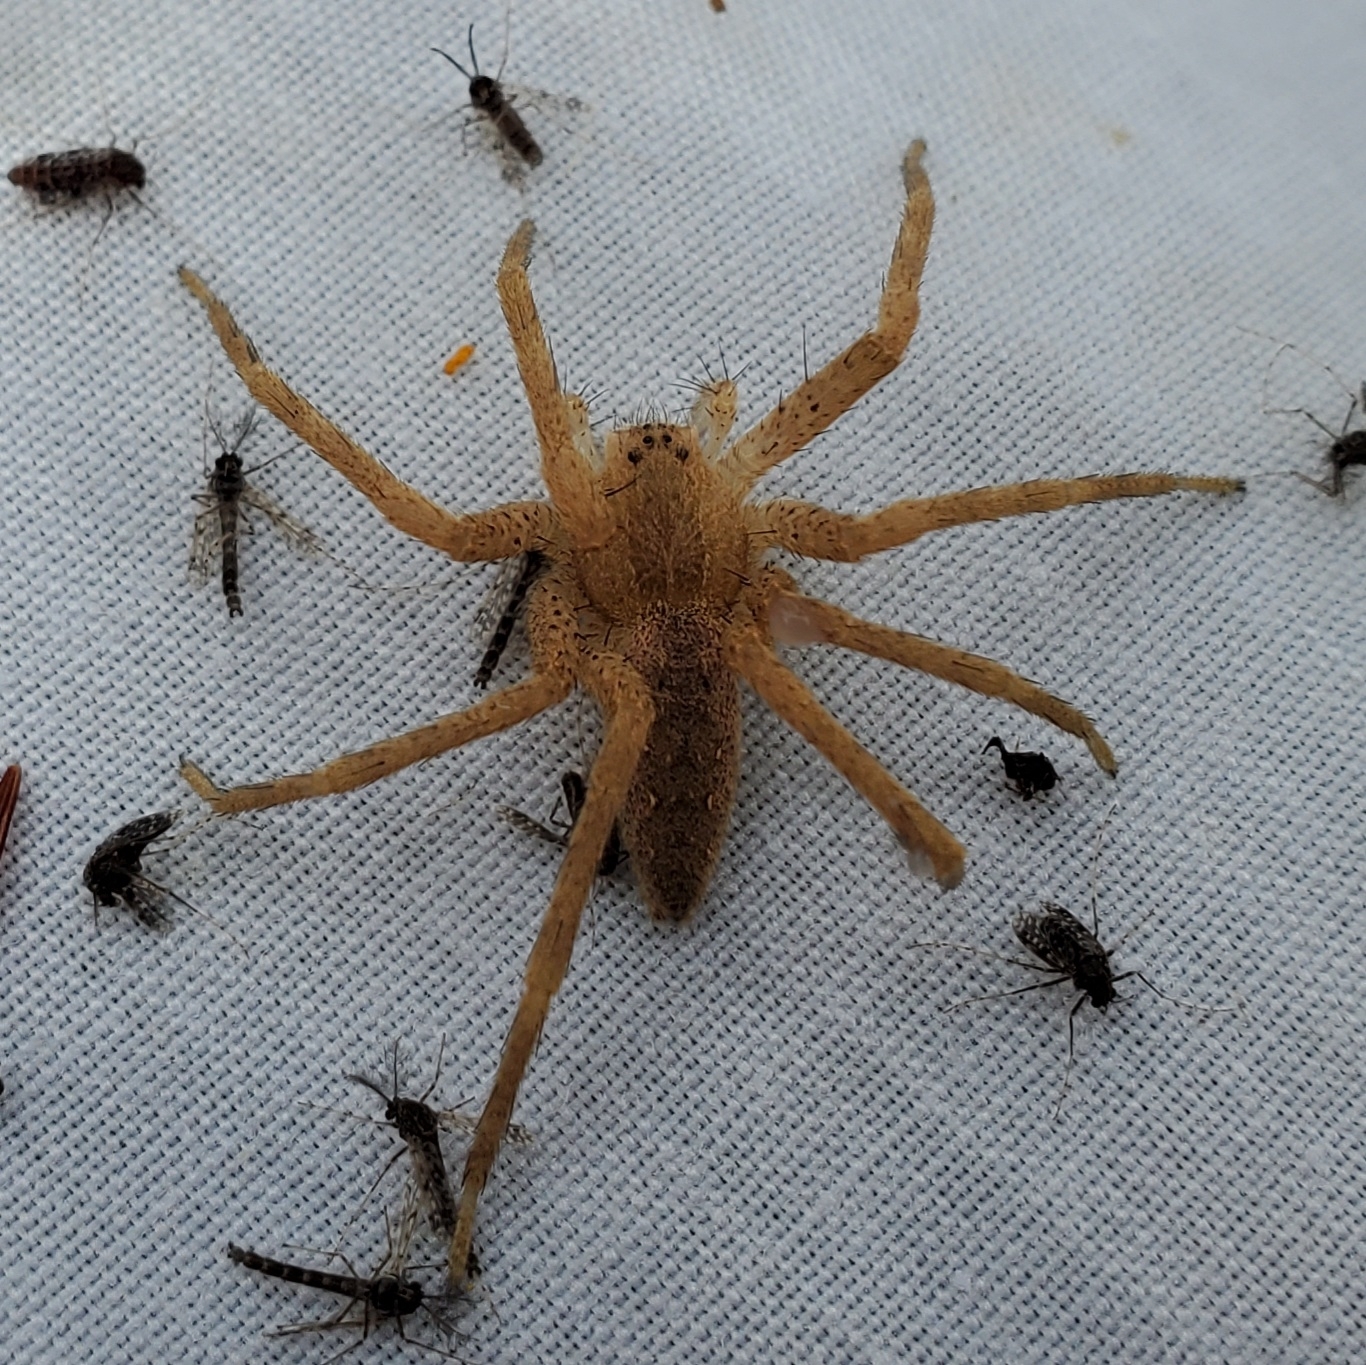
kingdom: Animalia
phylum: Arthropoda
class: Arachnida
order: Araneae
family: Pisauridae
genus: Pisaurina
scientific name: Pisaurina mira
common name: American nursery web spider
